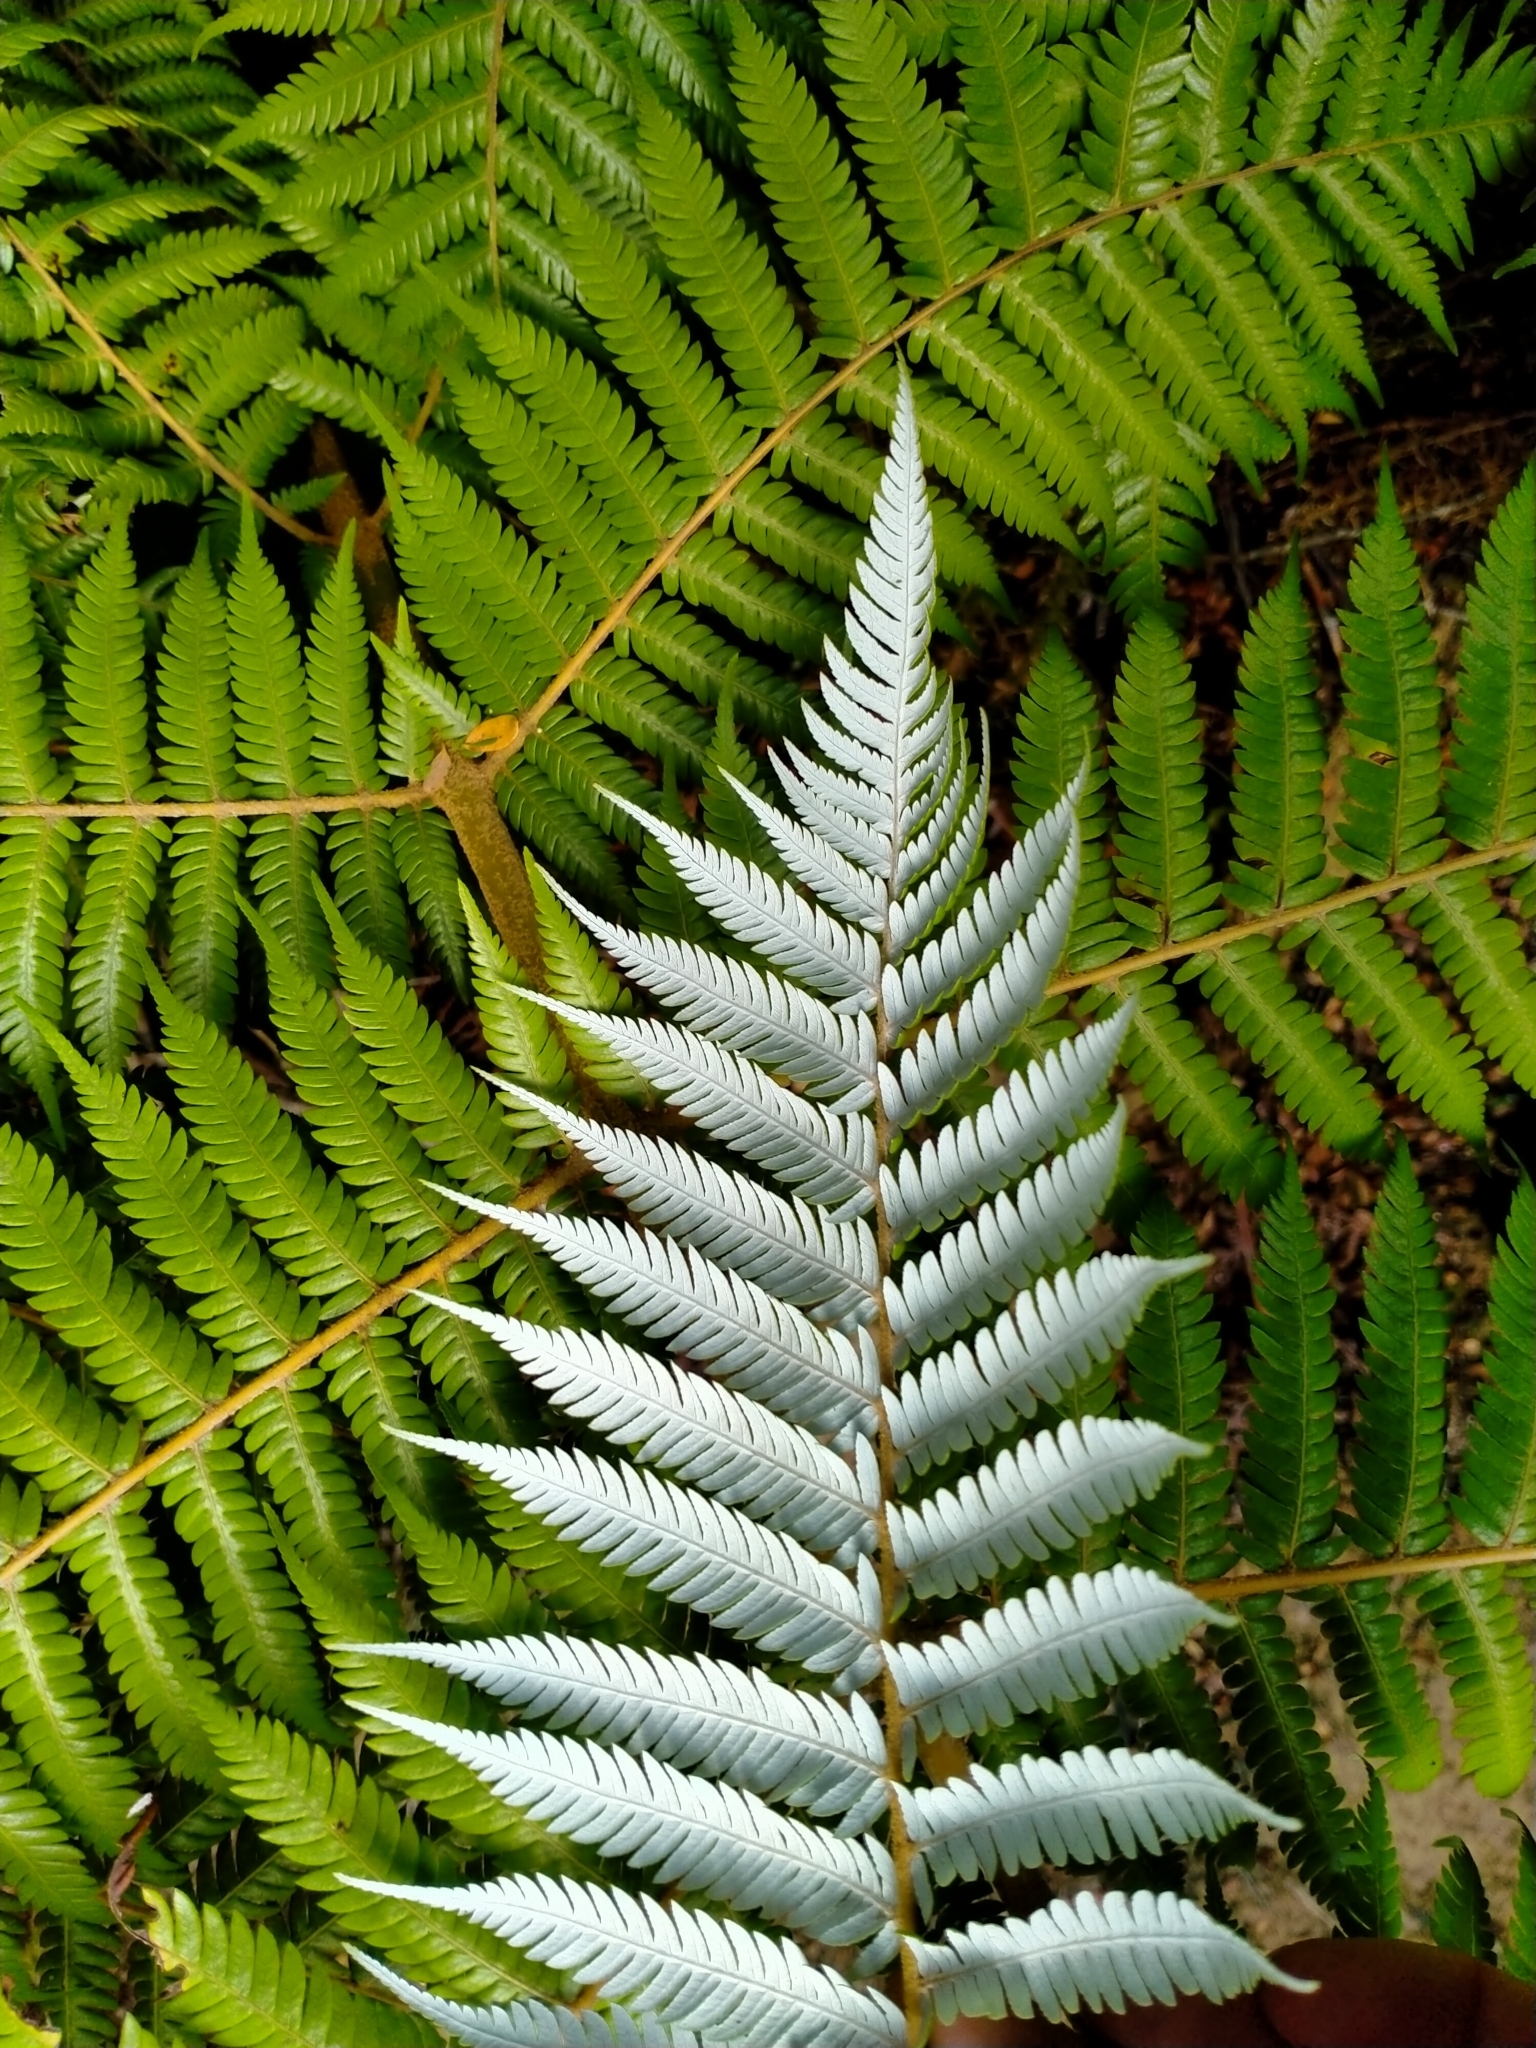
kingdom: Plantae
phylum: Tracheophyta
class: Polypodiopsida
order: Cyatheales
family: Cyatheaceae
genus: Alsophila
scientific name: Alsophila dealbata
